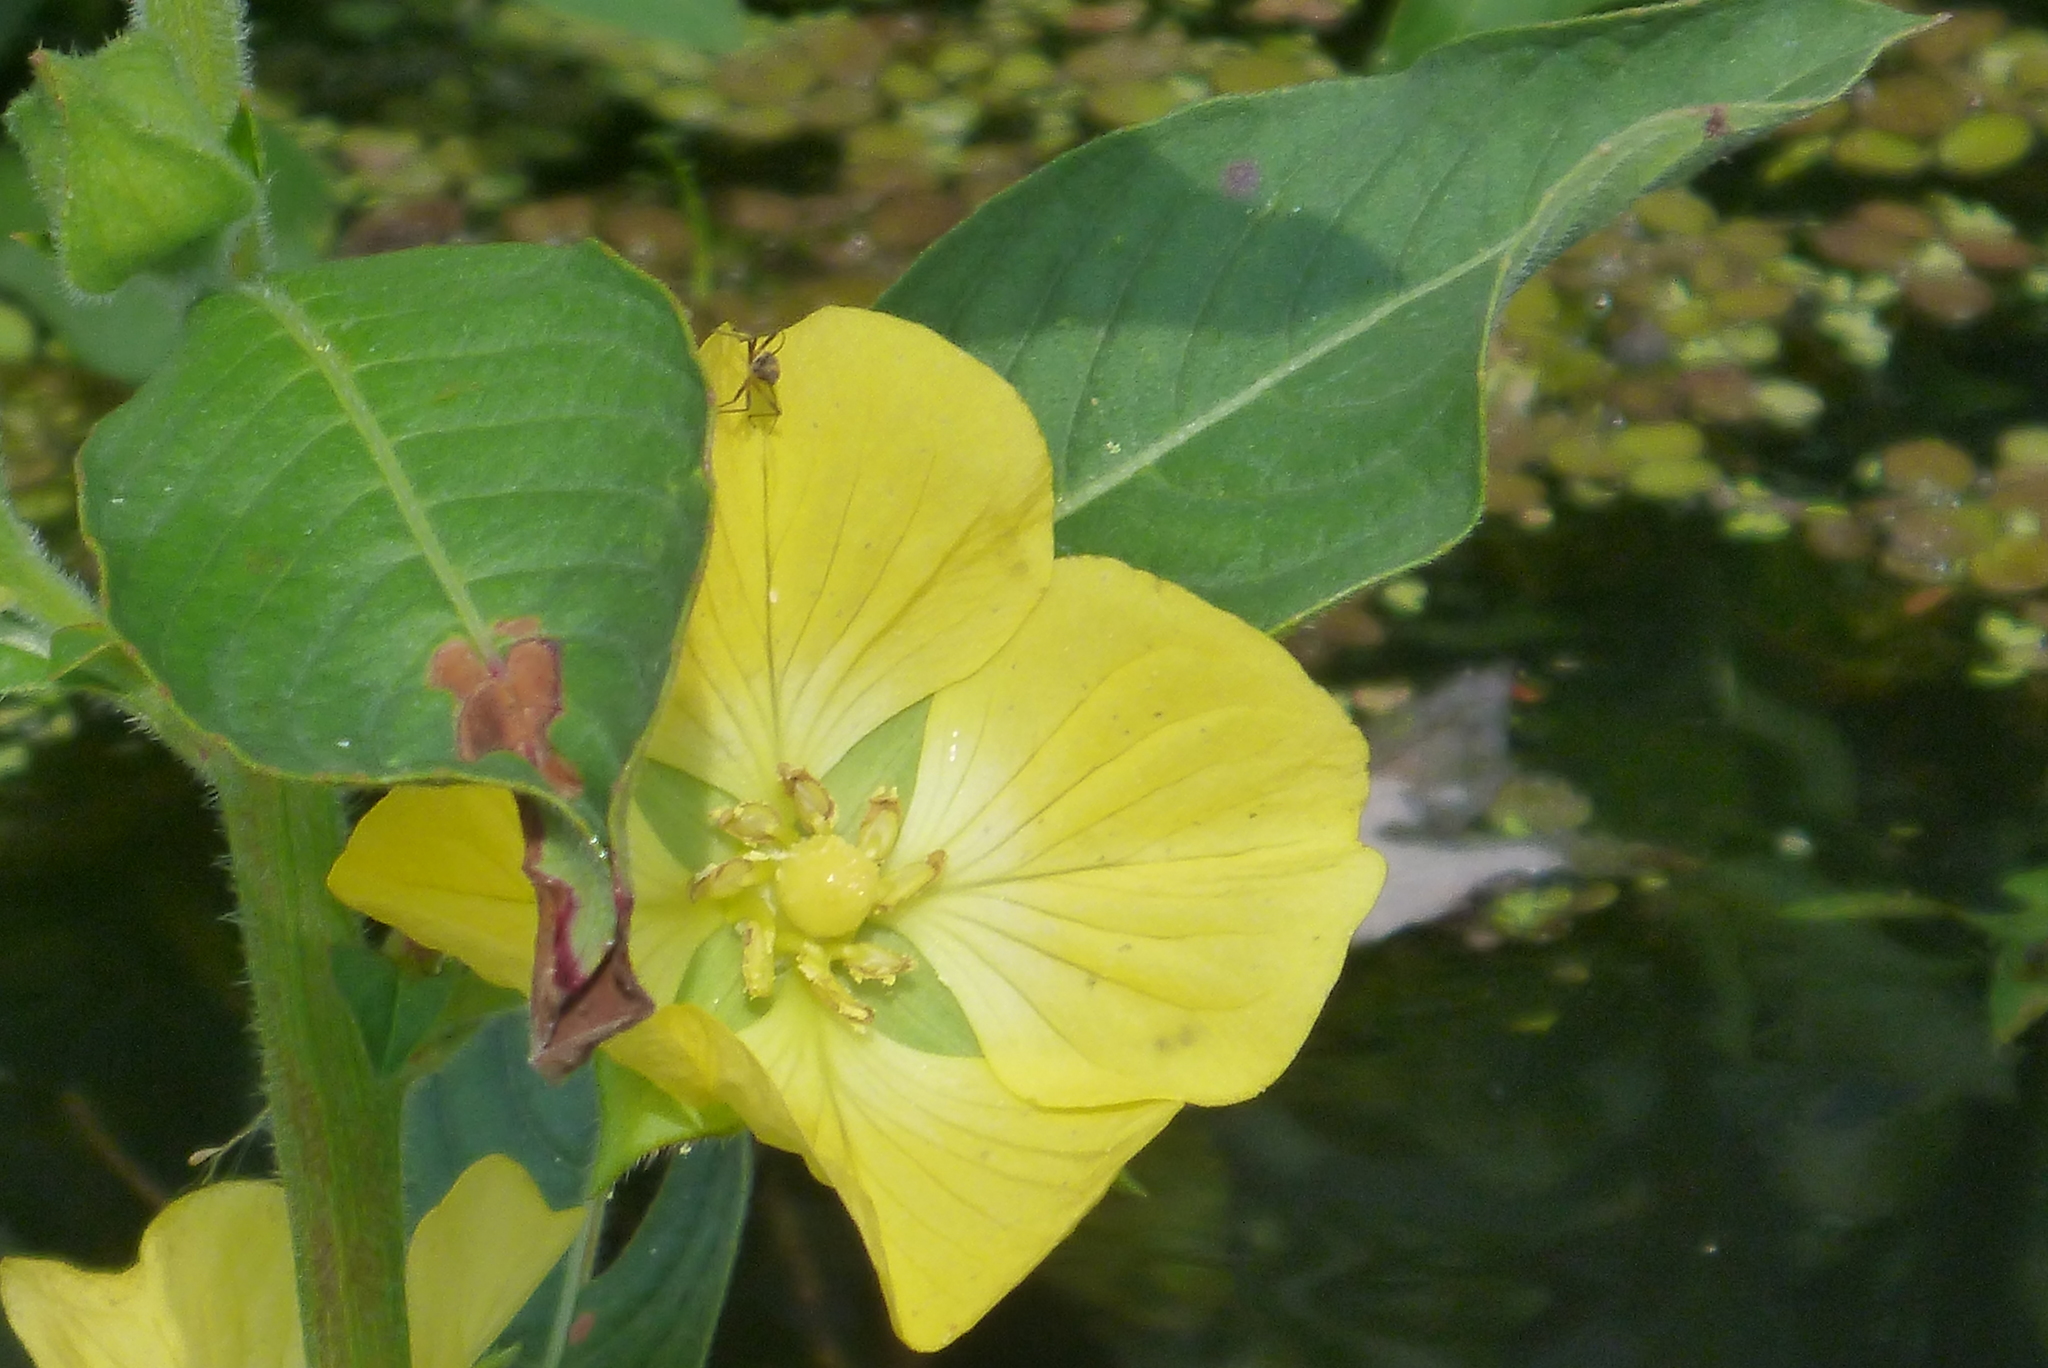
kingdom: Plantae
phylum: Tracheophyta
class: Magnoliopsida
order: Myrtales
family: Onagraceae
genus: Ludwigia
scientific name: Ludwigia peruviana
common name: Peruvian primrose-willow
